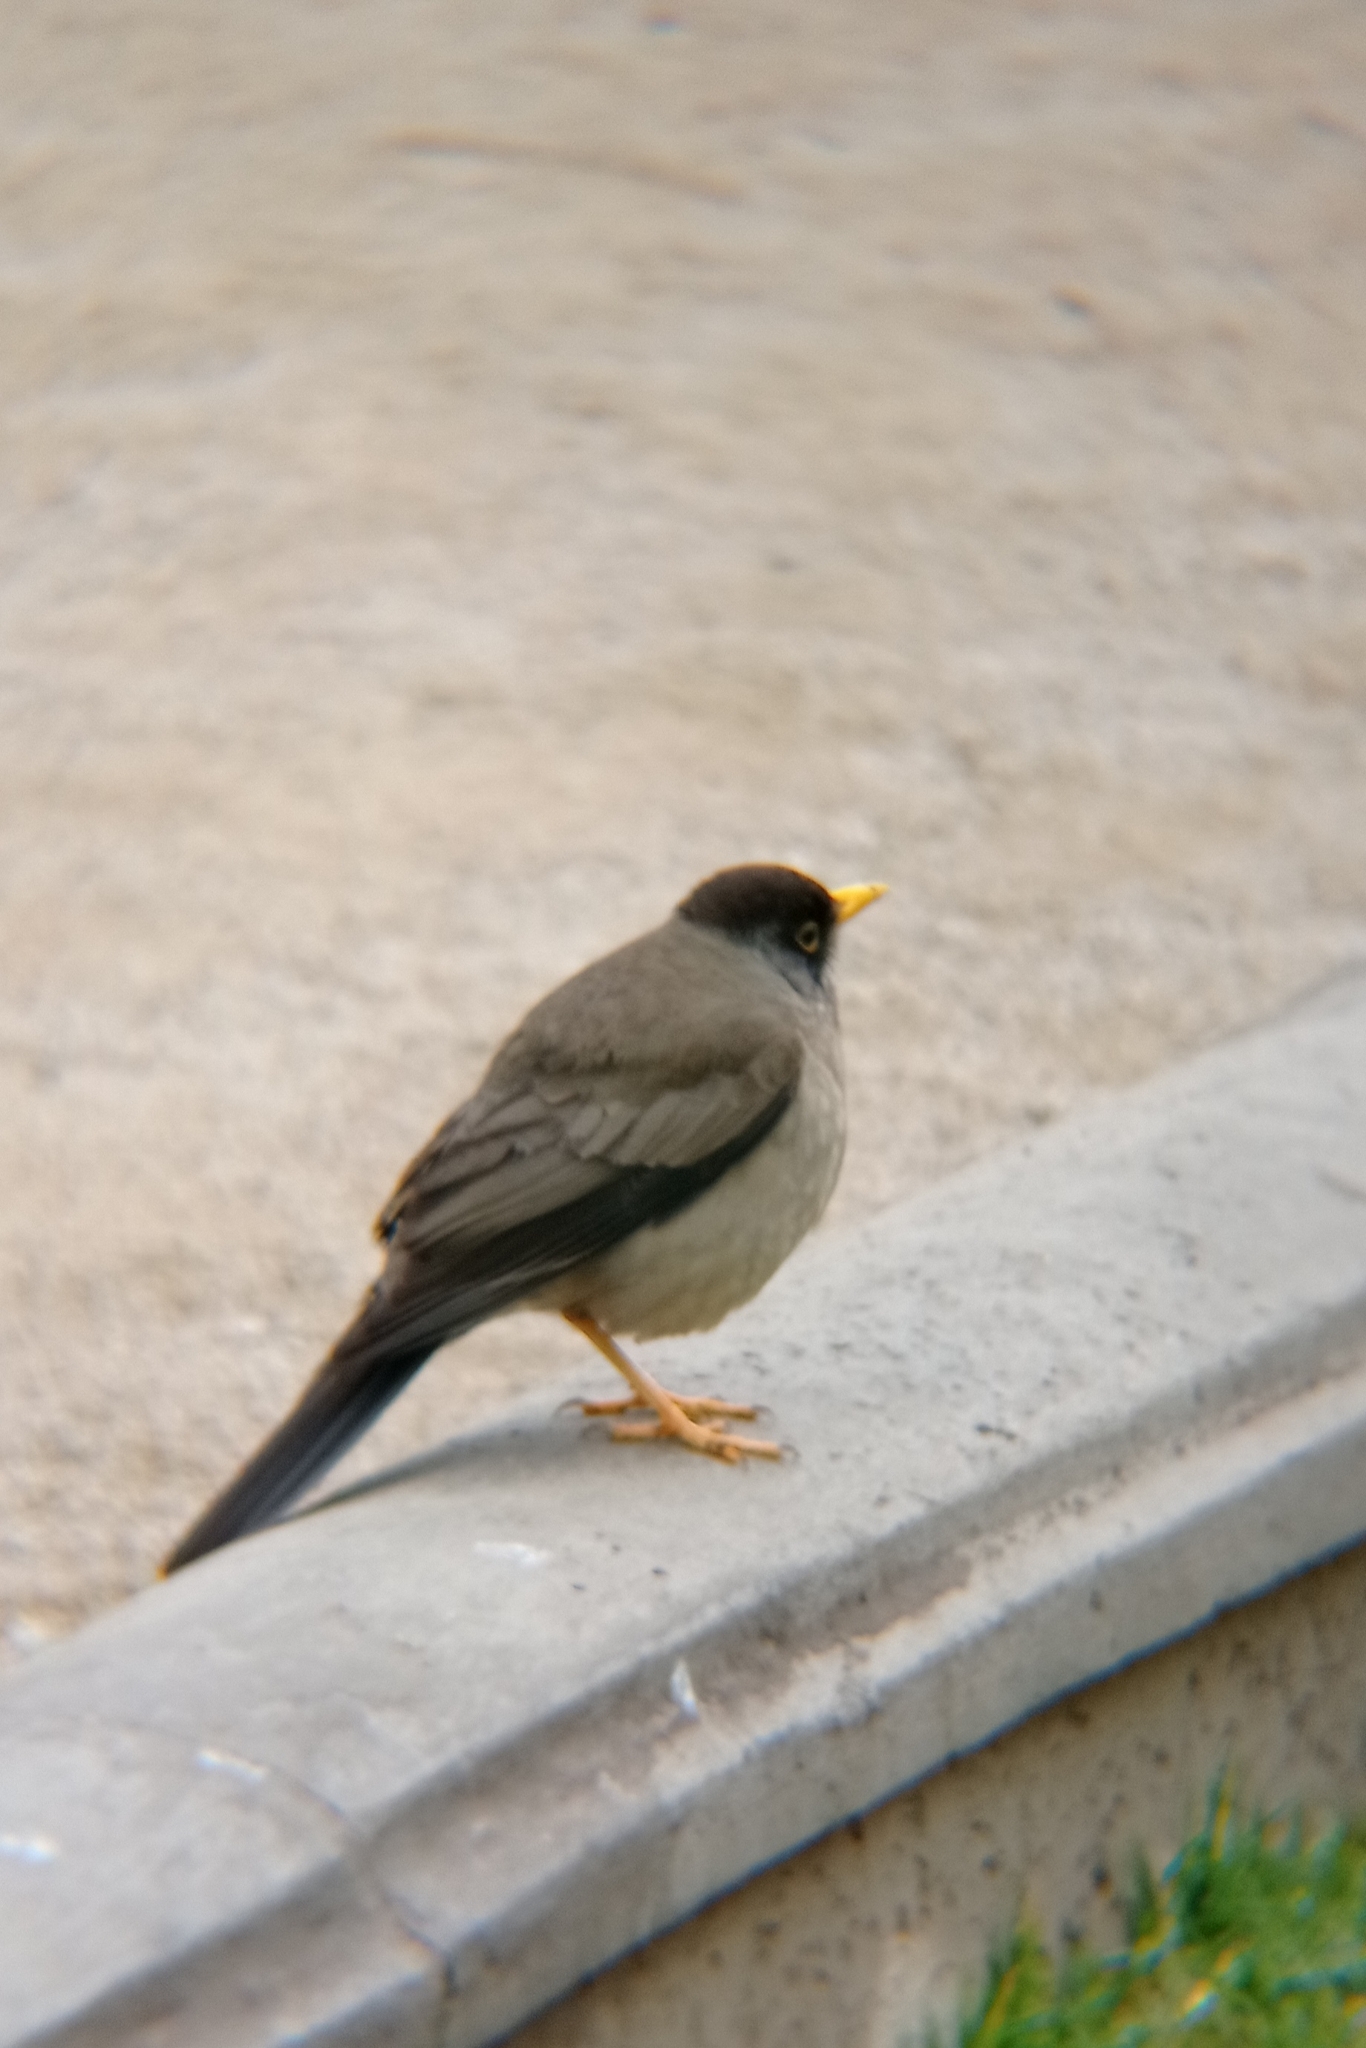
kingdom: Animalia
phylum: Chordata
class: Aves
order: Passeriformes
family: Turdidae
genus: Turdus
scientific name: Turdus falcklandii
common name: Austral thrush
